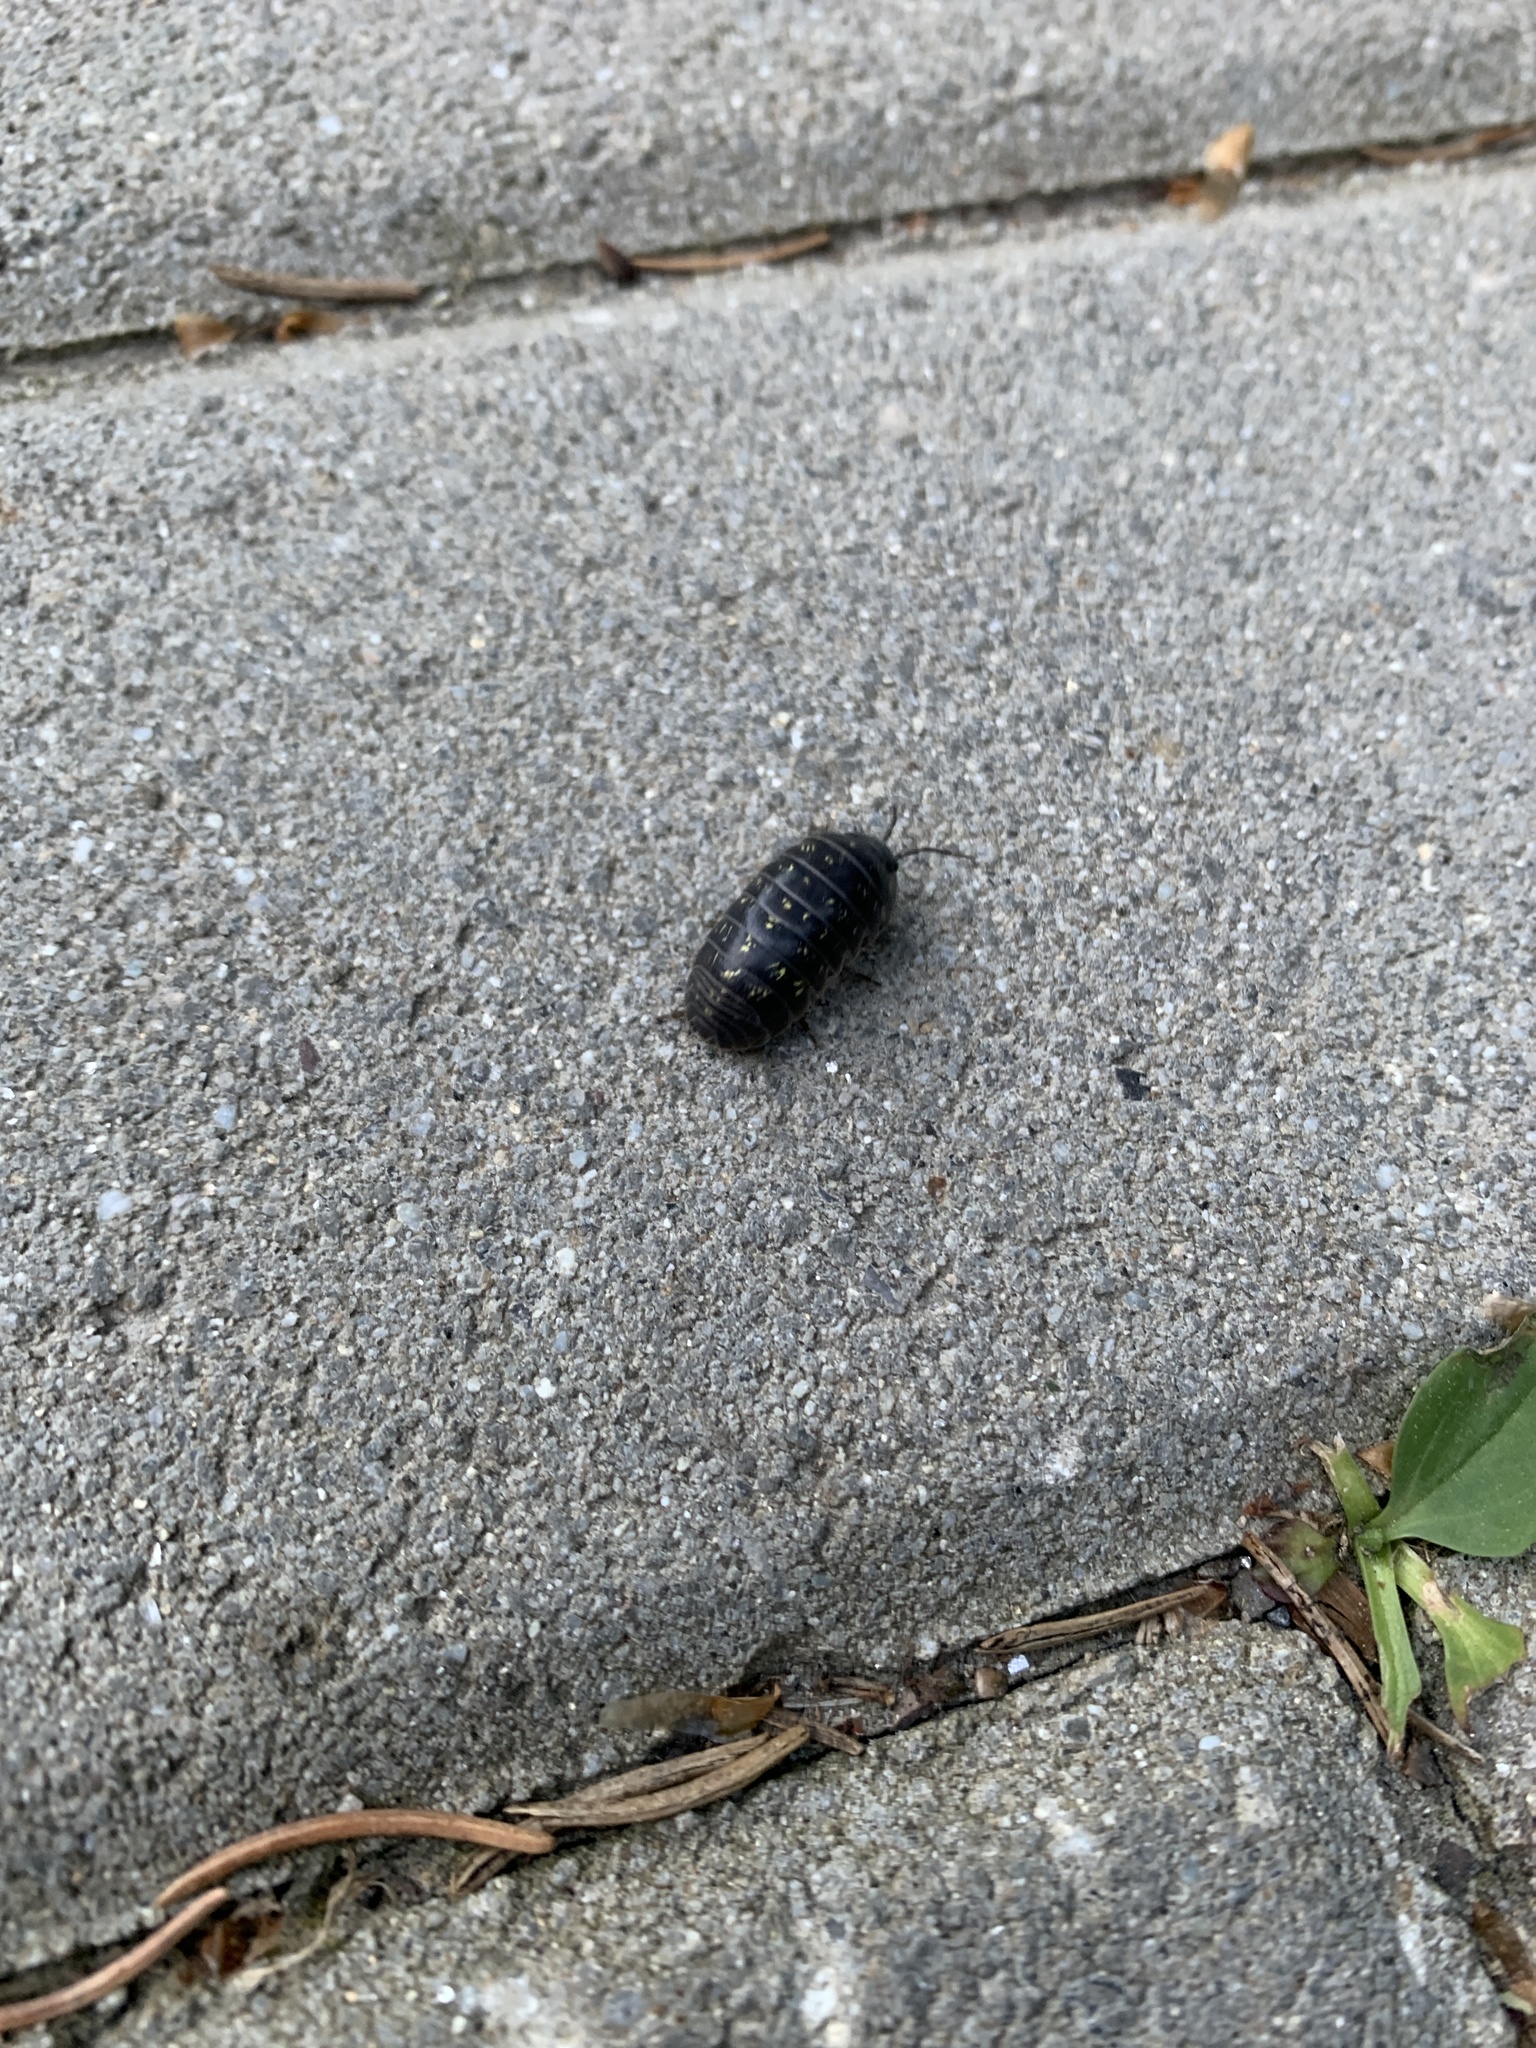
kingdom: Animalia
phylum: Arthropoda
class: Malacostraca
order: Isopoda
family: Armadillidiidae
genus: Armadillidium
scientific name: Armadillidium vulgare
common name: Common pill woodlouse
